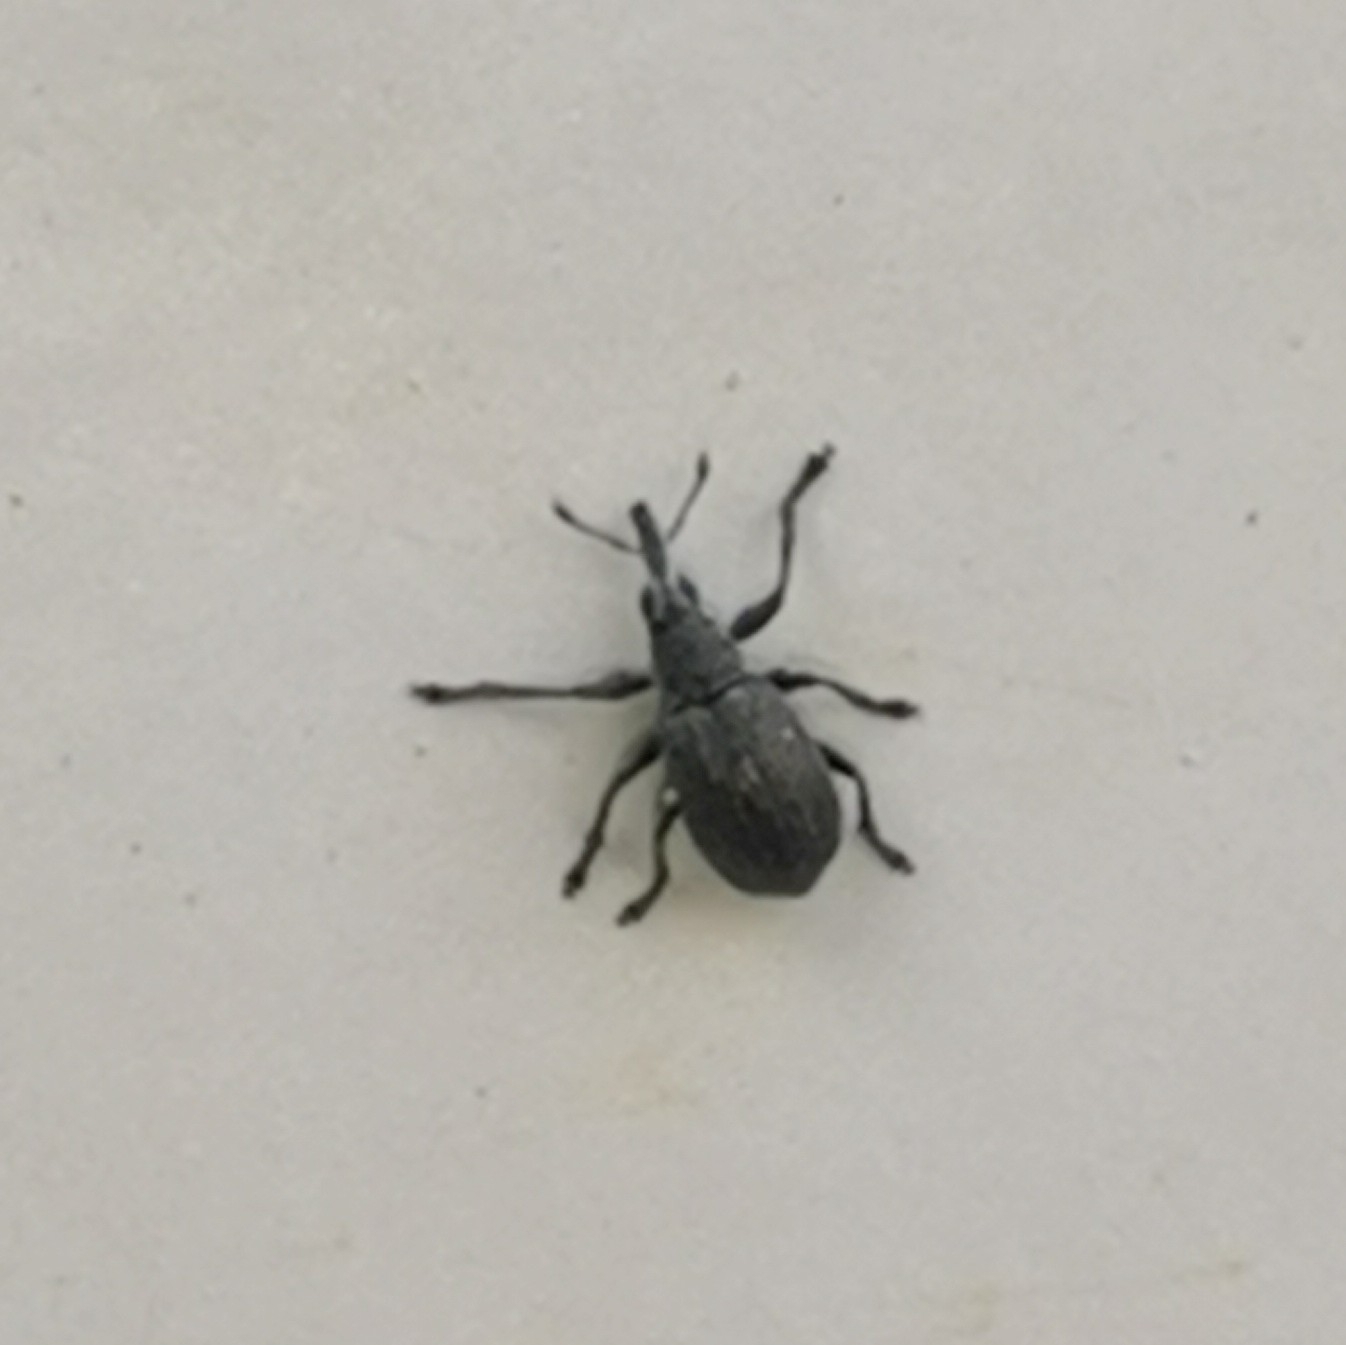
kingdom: Animalia
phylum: Arthropoda
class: Insecta
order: Coleoptera
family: Brentidae
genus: Betulapion
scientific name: Betulapion simile
